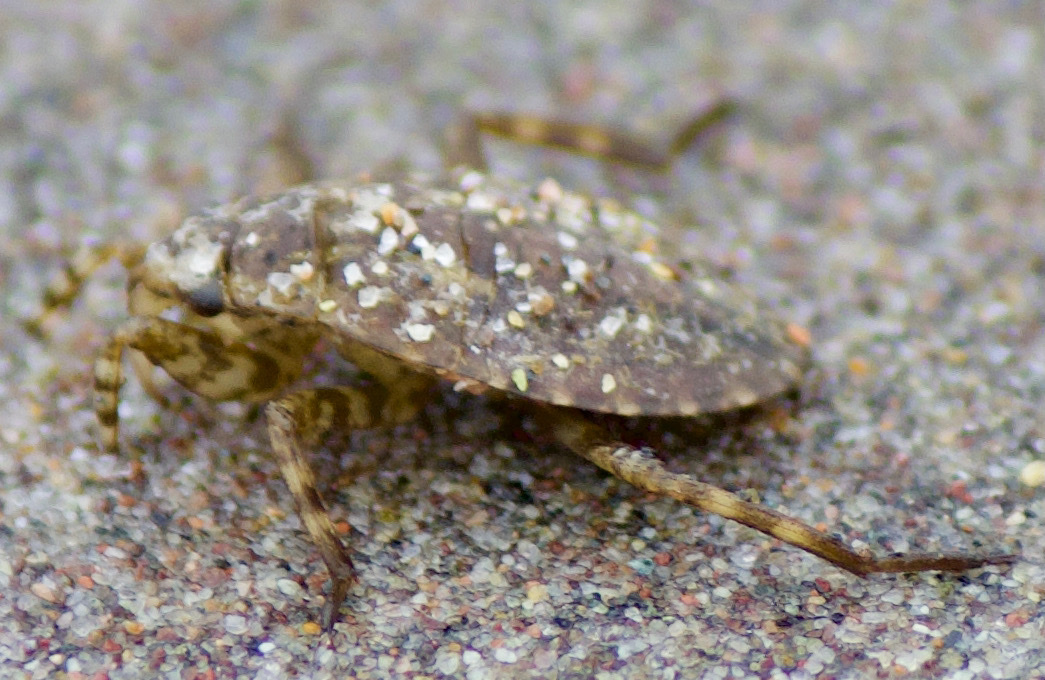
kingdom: Animalia
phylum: Arthropoda
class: Insecta
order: Hemiptera
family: Belostomatidae
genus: Belostoma
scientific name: Belostoma
